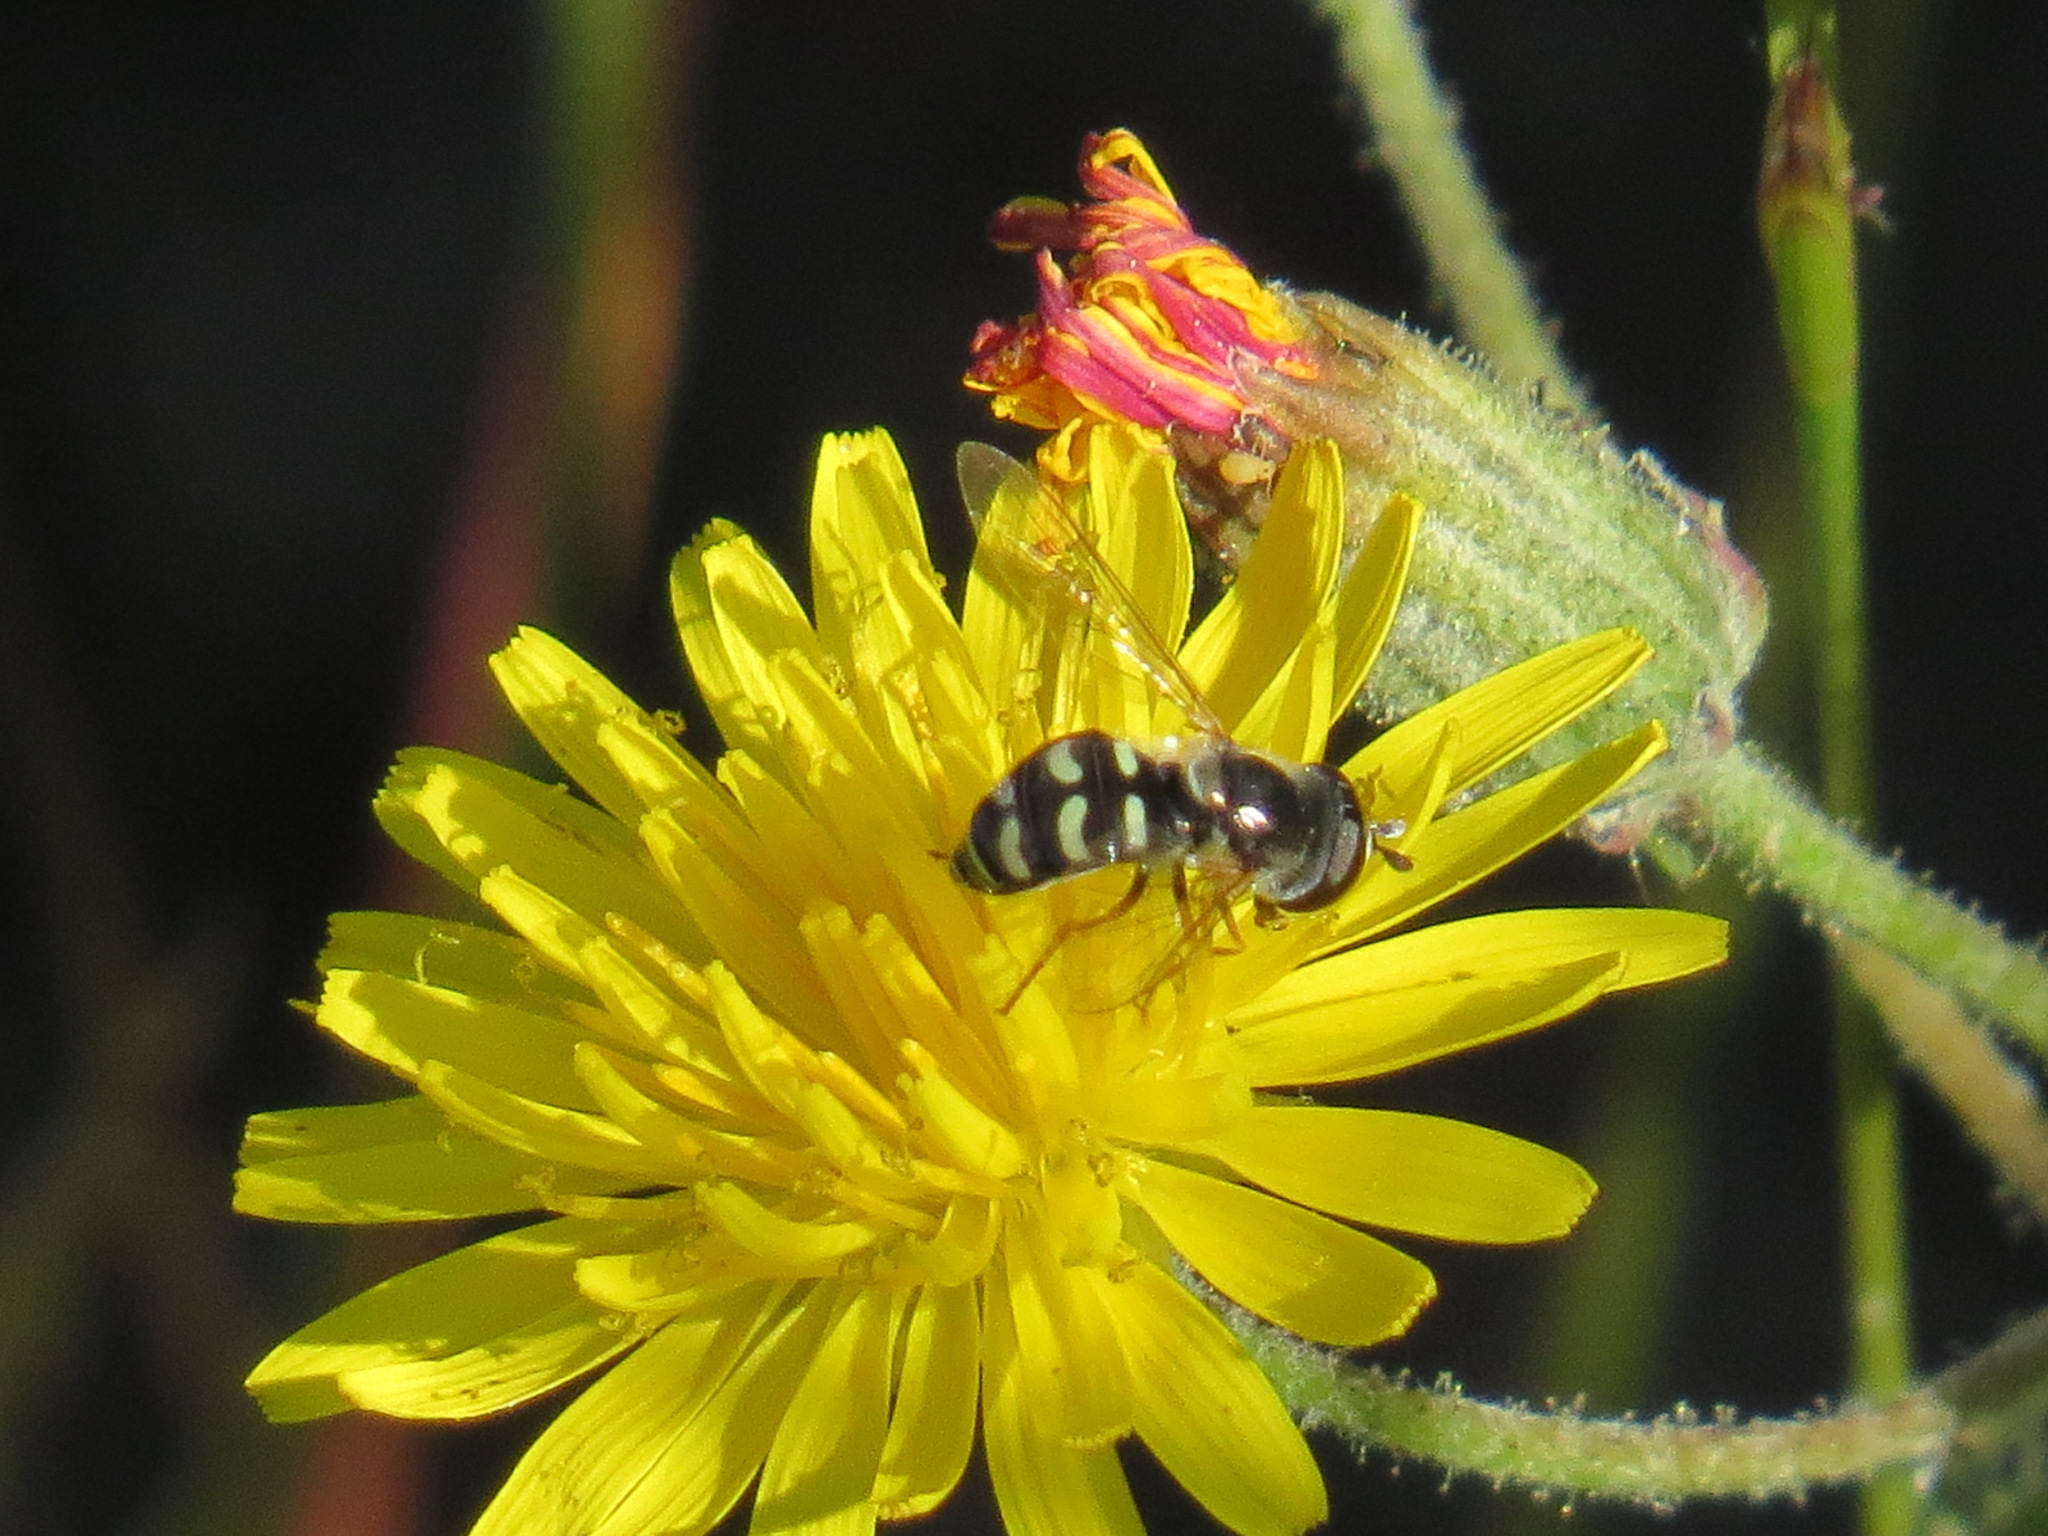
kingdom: Animalia
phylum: Arthropoda
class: Insecta
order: Diptera
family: Syrphidae
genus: Eupeodes
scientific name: Eupeodes volucris
